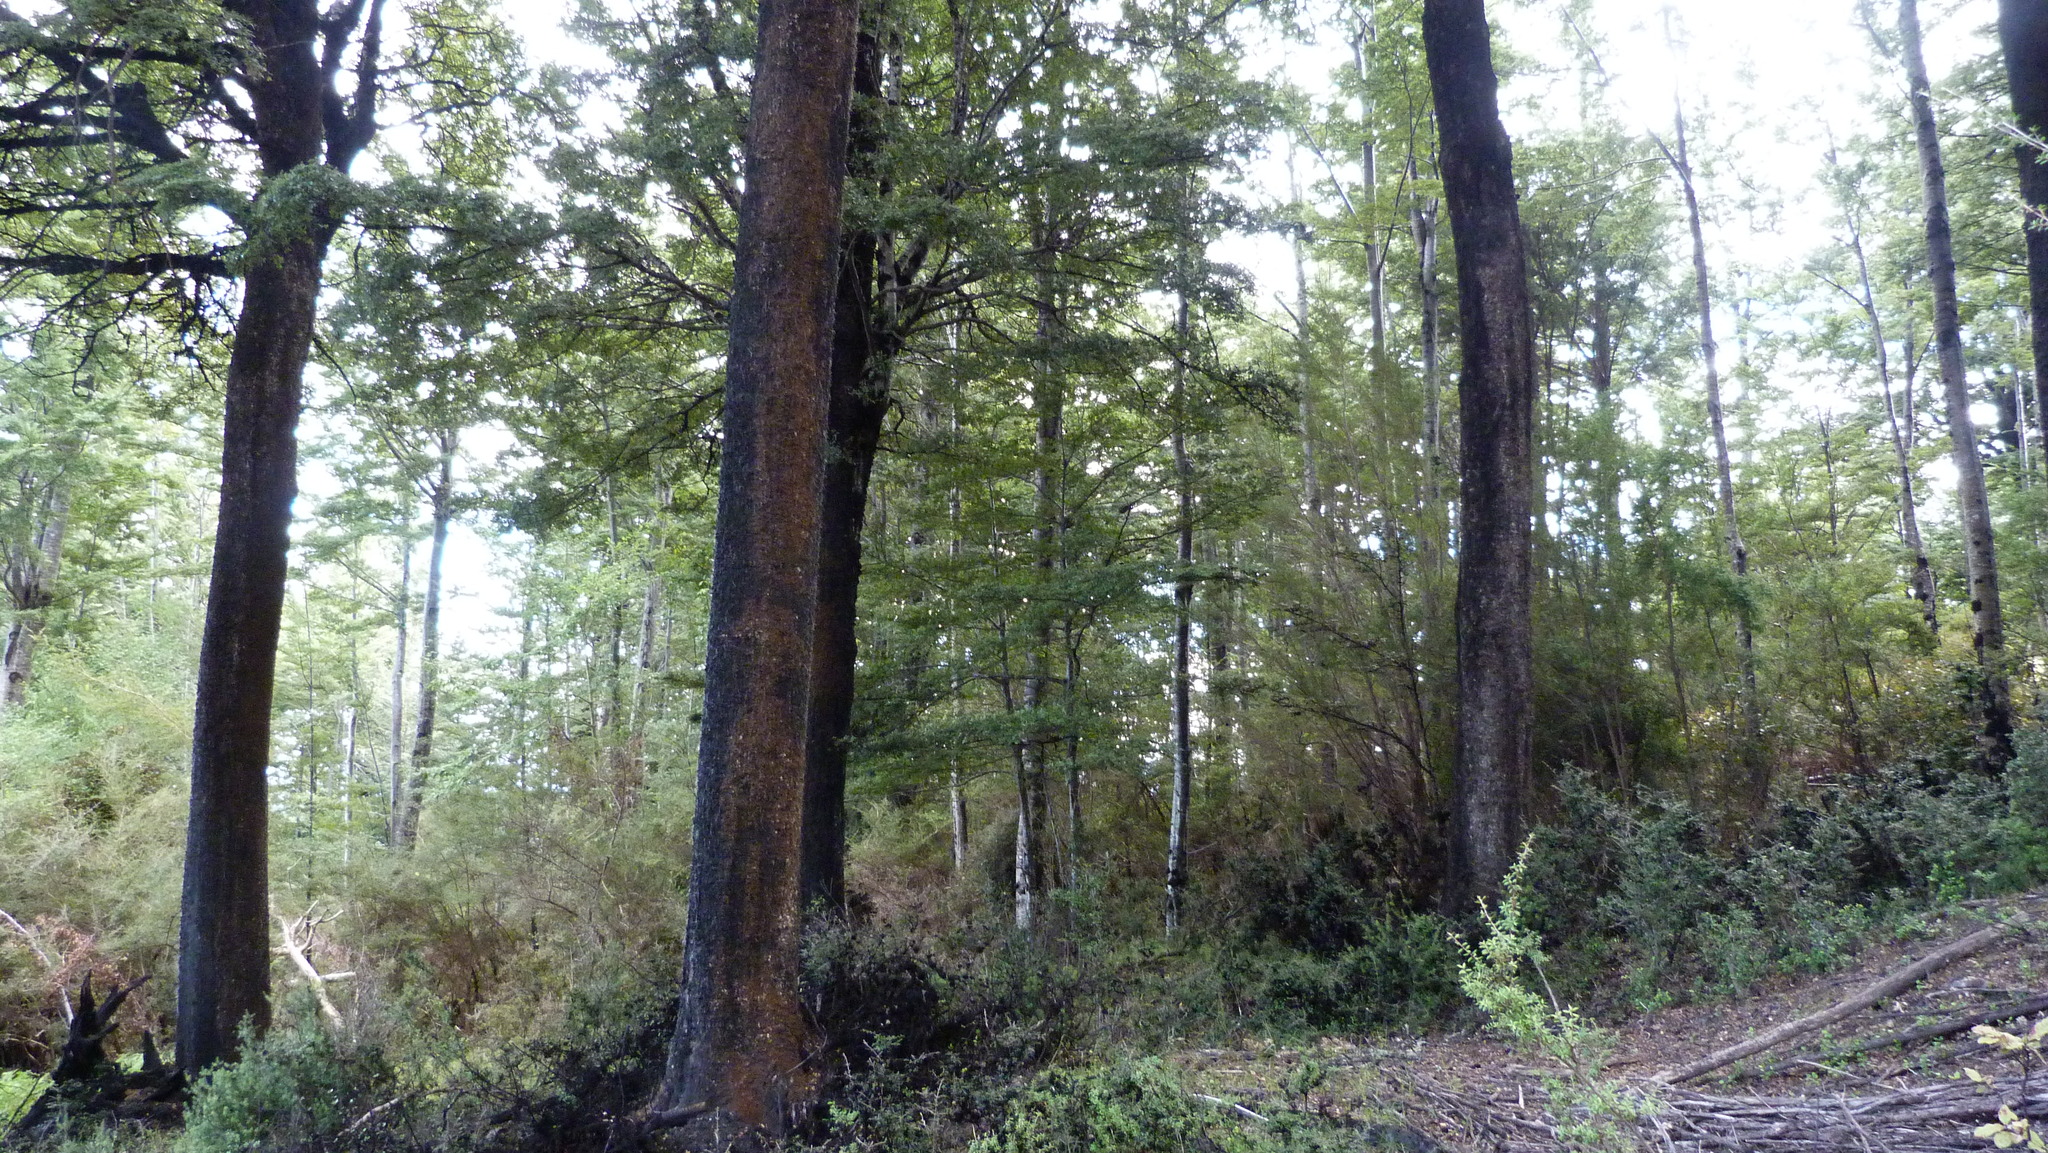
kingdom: Plantae
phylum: Tracheophyta
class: Magnoliopsida
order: Fagales
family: Nothofagaceae
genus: Nothofagus
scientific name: Nothofagus solandri
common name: Black beech
